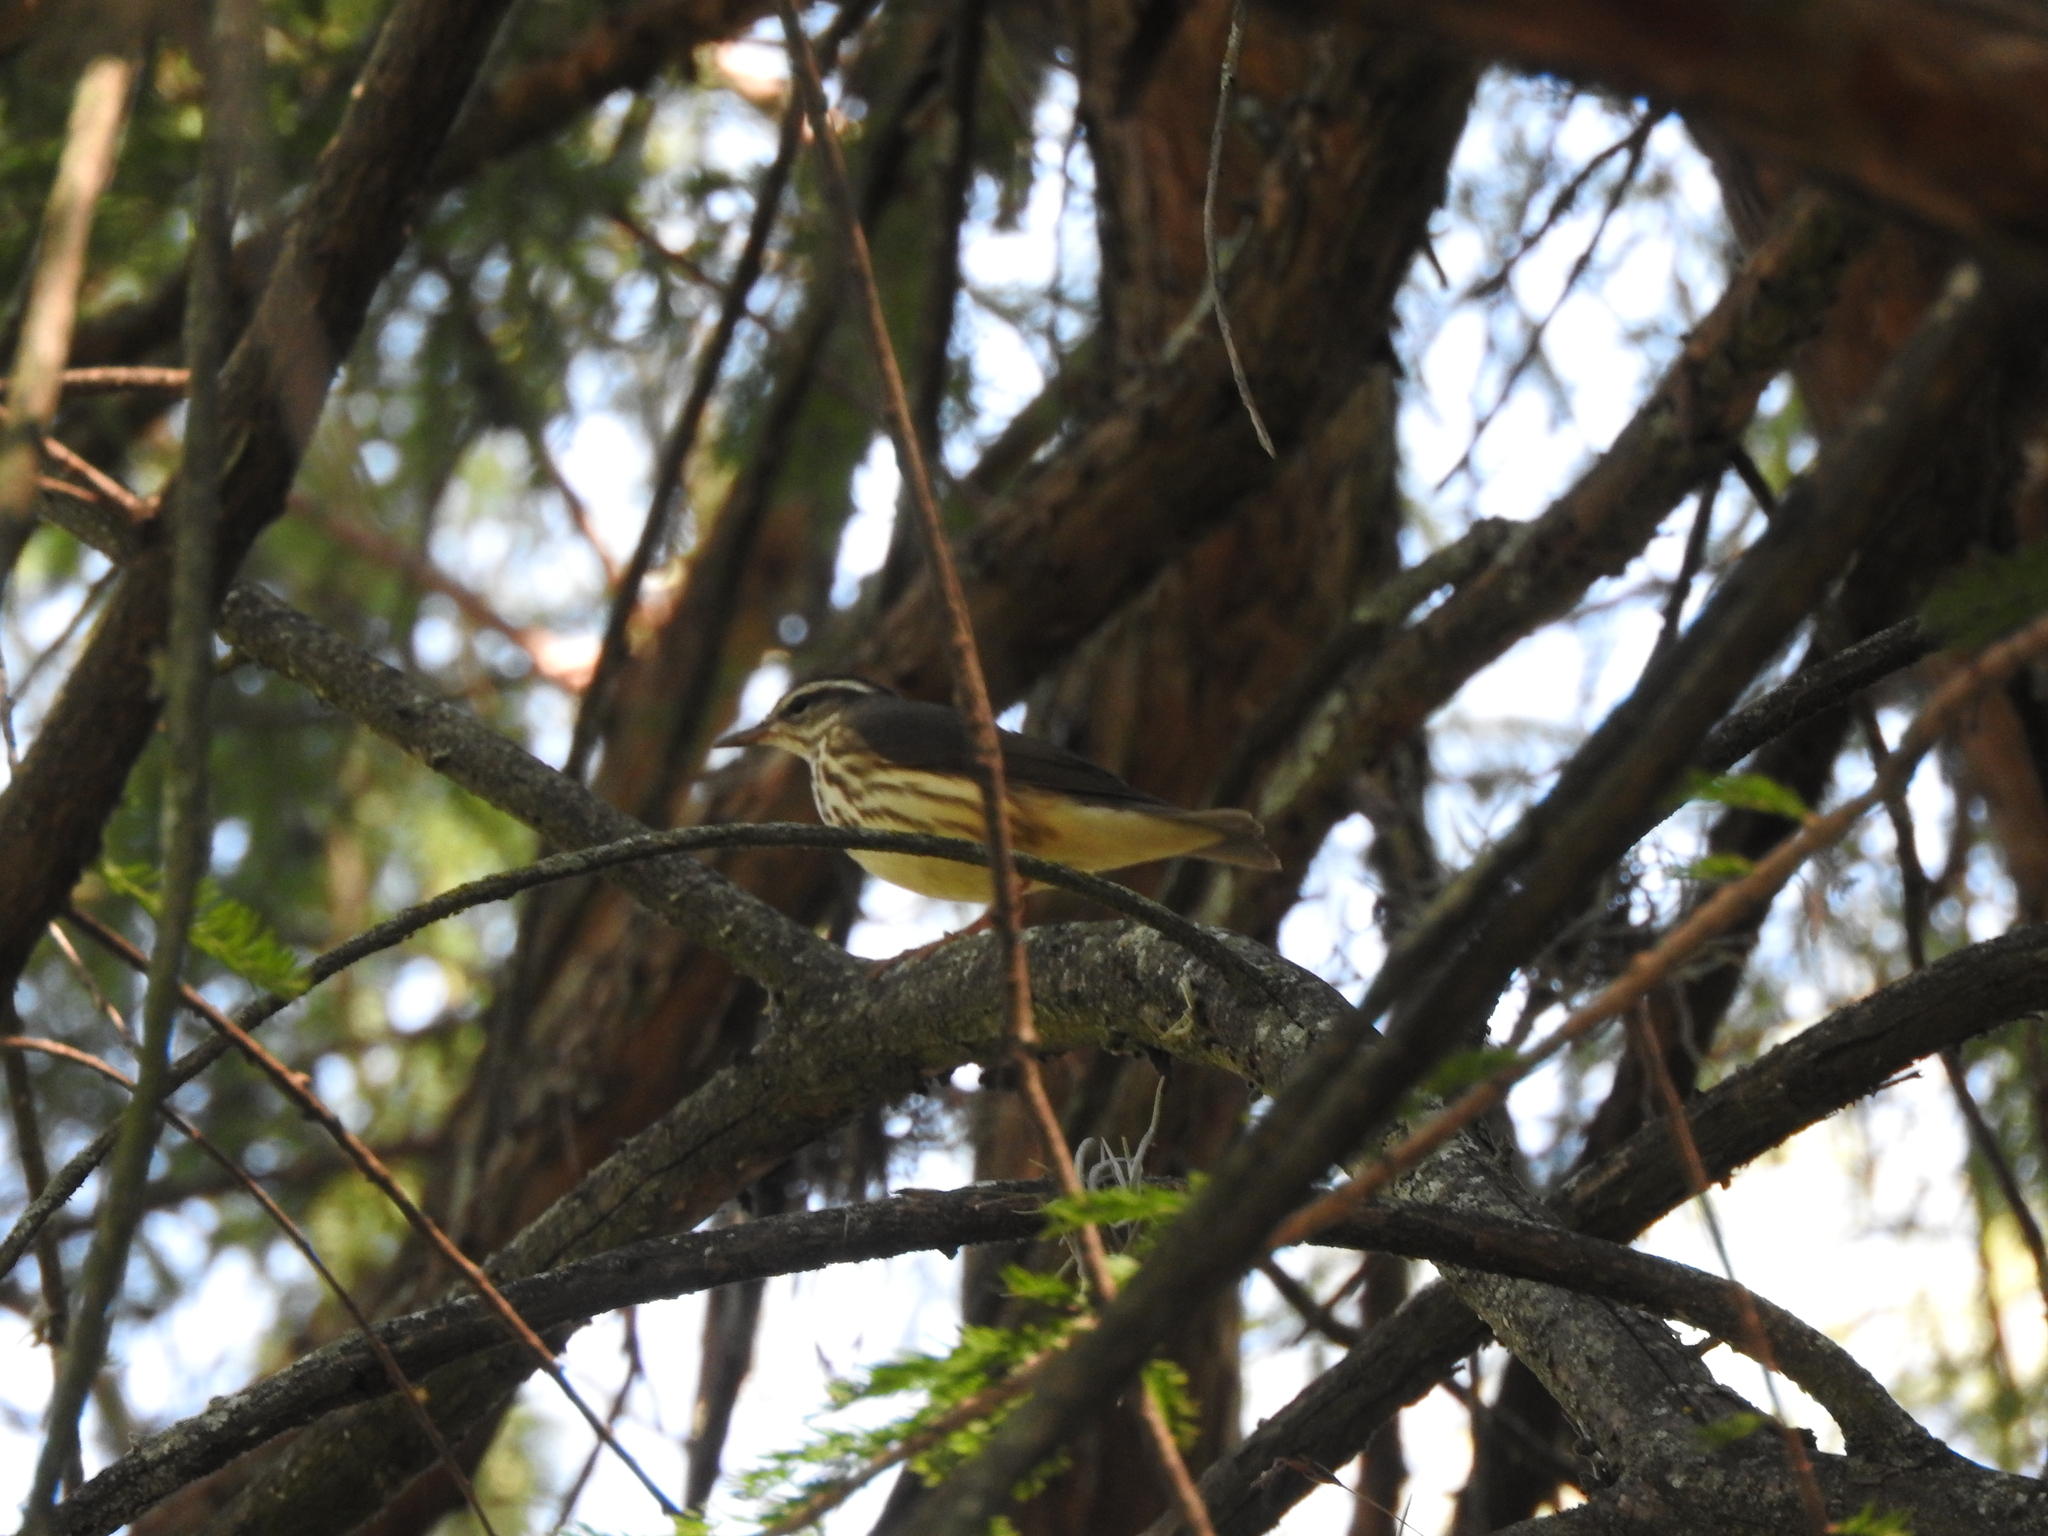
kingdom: Animalia
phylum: Chordata
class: Aves
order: Passeriformes
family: Parulidae
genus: Parkesia
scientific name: Parkesia motacilla
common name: Louisiana waterthrush
